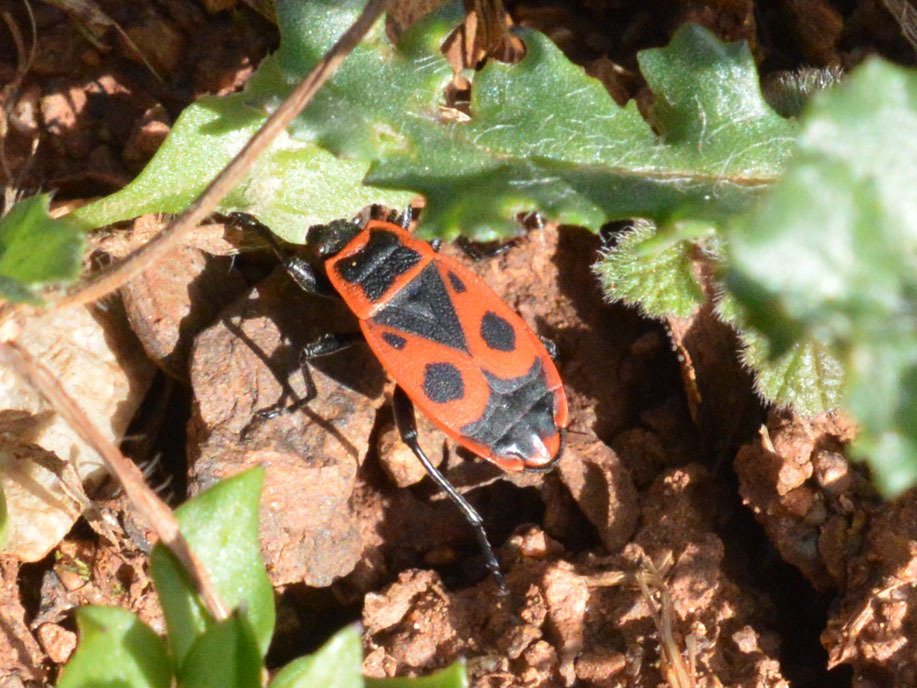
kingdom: Animalia
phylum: Arthropoda
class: Insecta
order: Hemiptera
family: Pyrrhocoridae
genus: Pyrrhocoris
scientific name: Pyrrhocoris apterus
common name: Firebug
